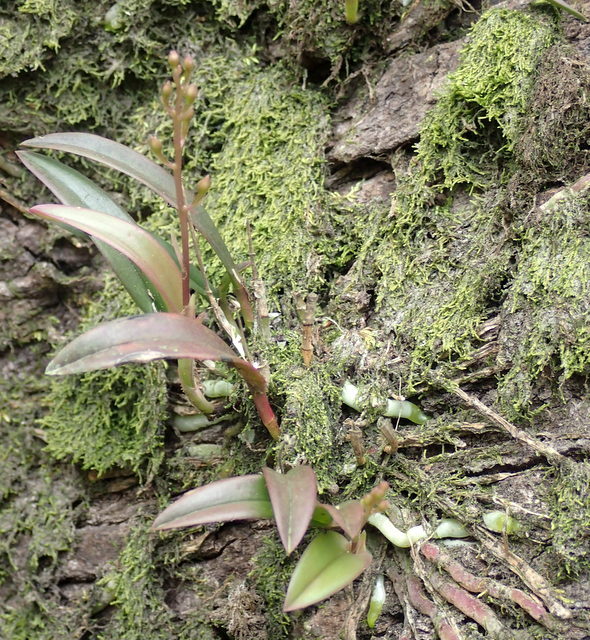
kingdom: Plantae
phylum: Tracheophyta
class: Liliopsida
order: Asparagales
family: Orchidaceae
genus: Epidendrum
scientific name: Epidendrum conopseum
